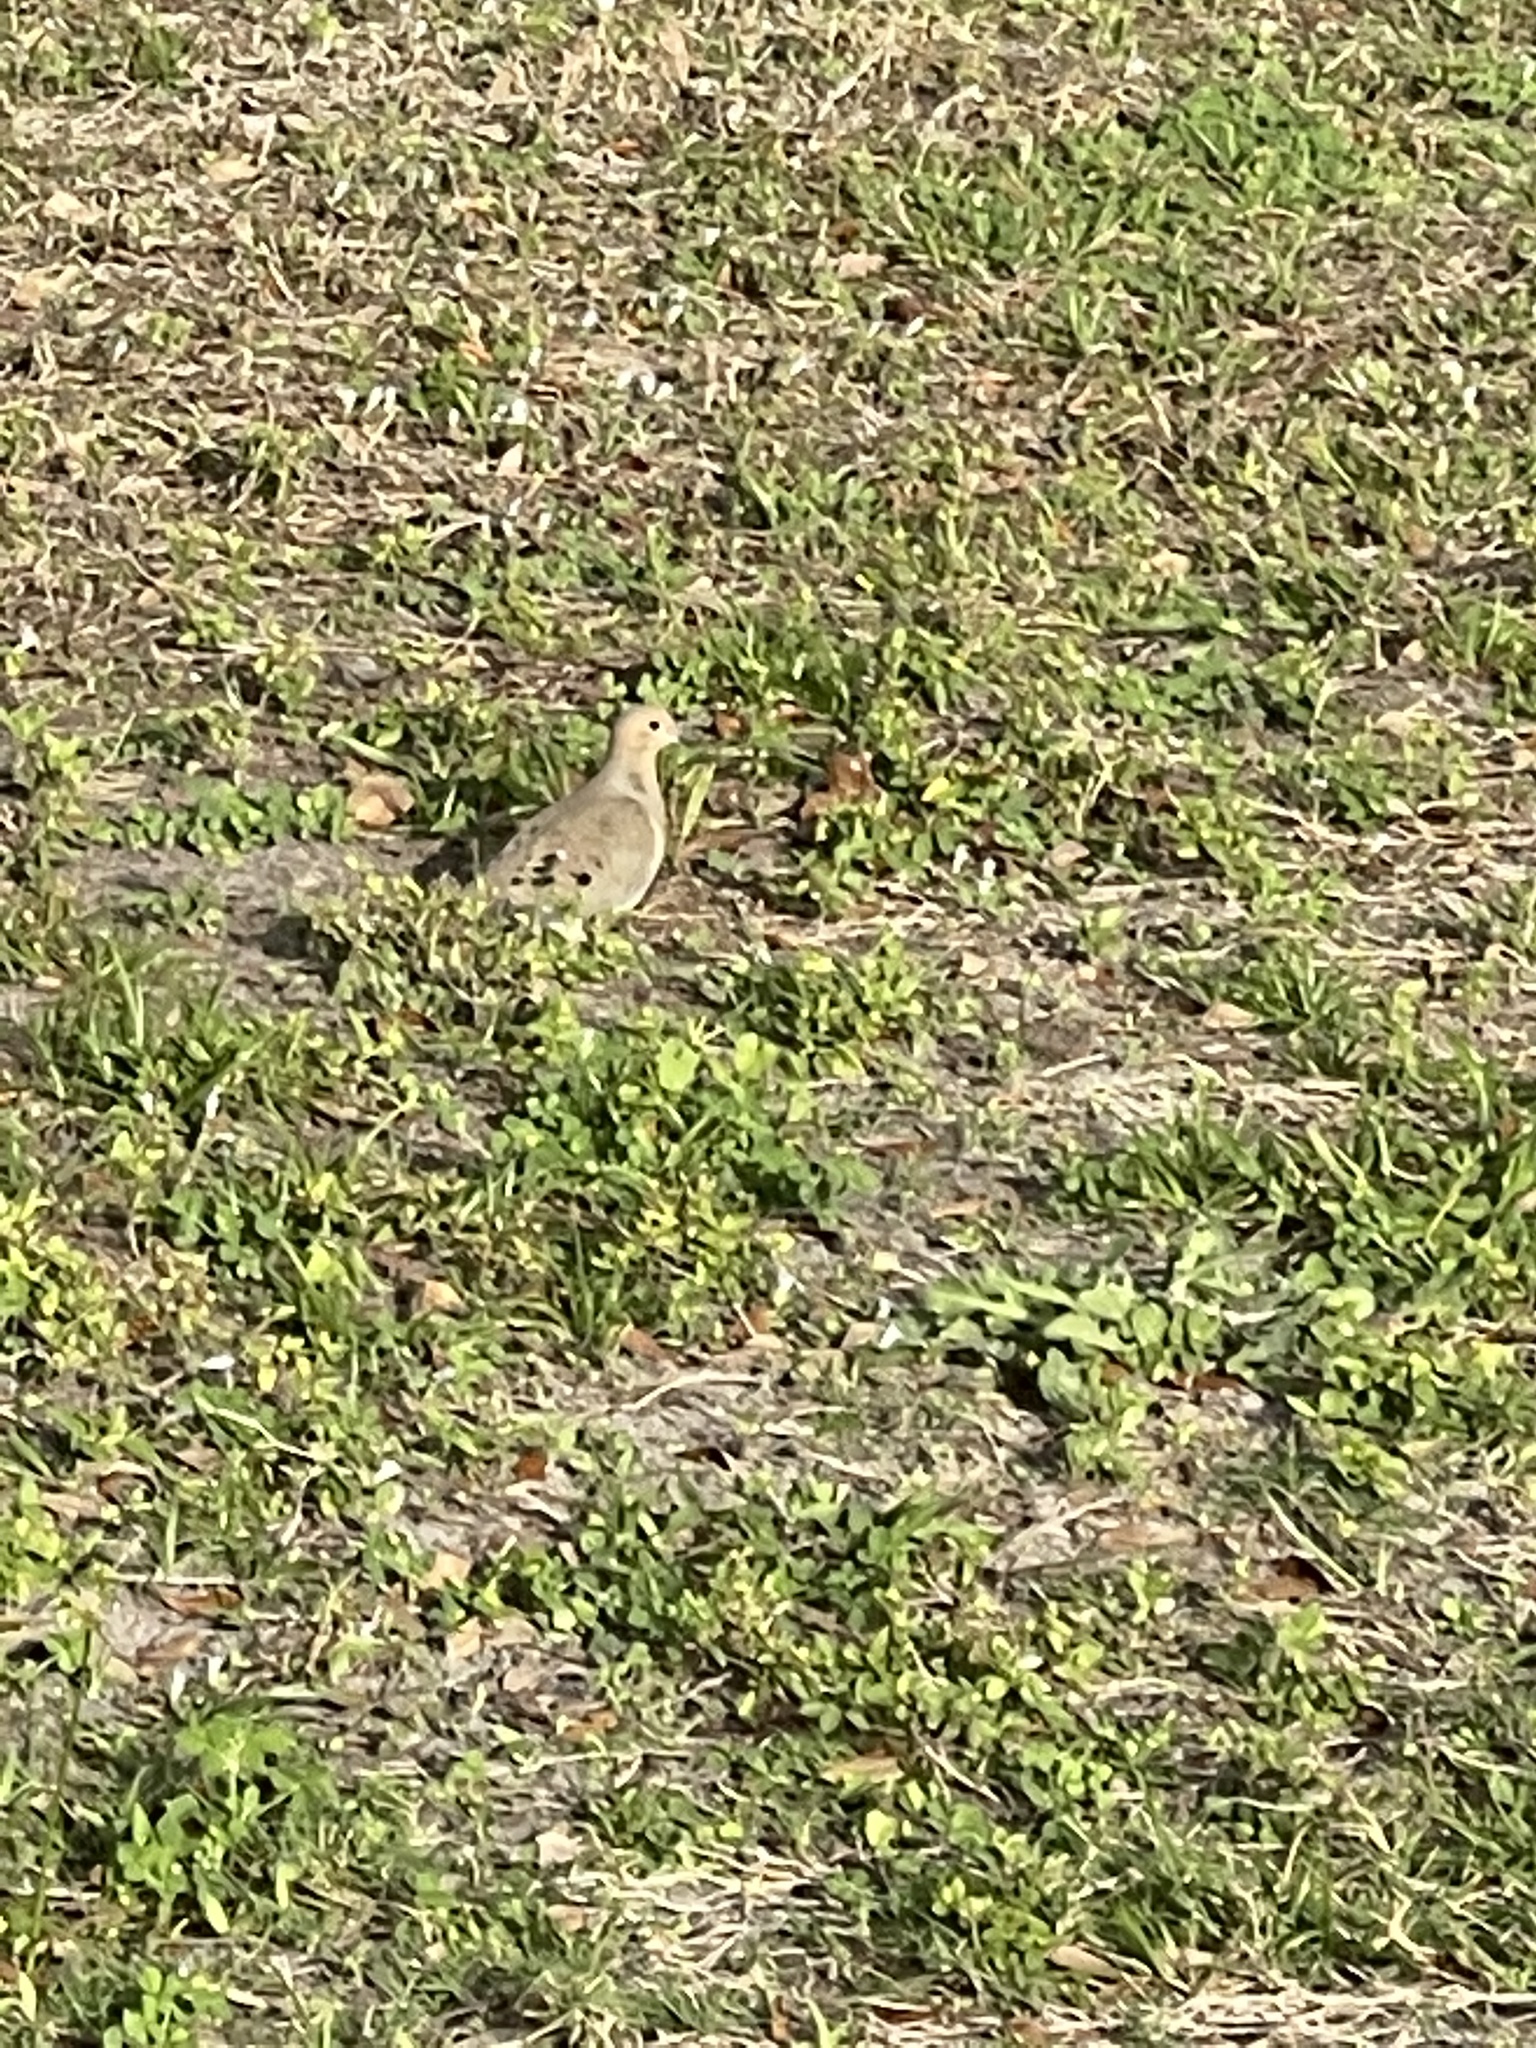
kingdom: Animalia
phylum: Chordata
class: Aves
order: Columbiformes
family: Columbidae
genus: Zenaida
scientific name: Zenaida macroura
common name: Mourning dove
